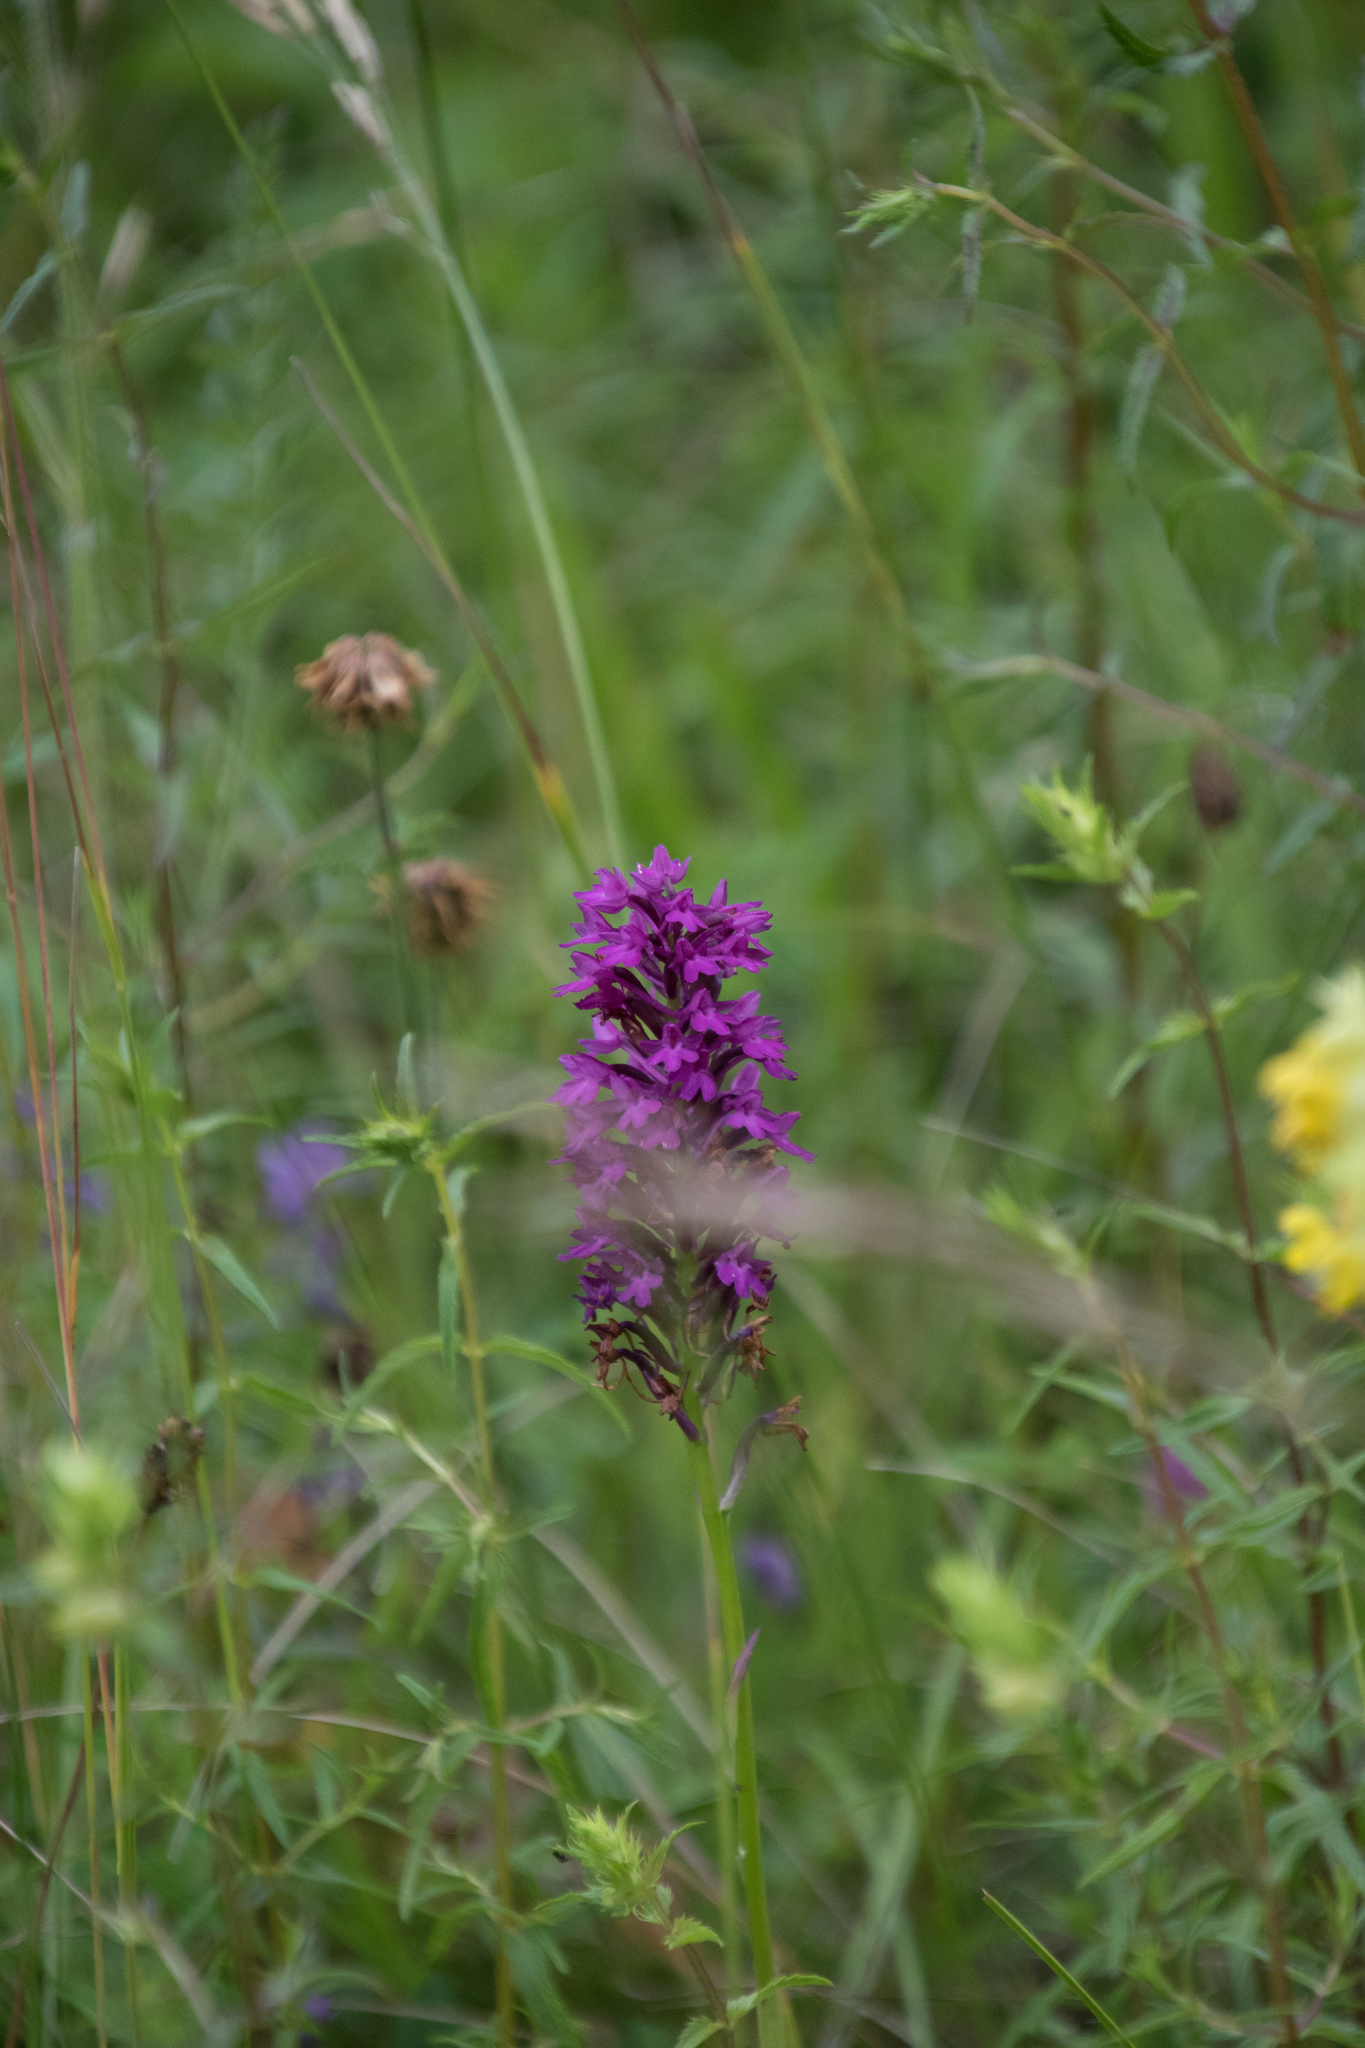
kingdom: Plantae
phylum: Tracheophyta
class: Liliopsida
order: Asparagales
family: Orchidaceae
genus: Anacamptis
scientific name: Anacamptis pyramidalis
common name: Pyramidal orchid
